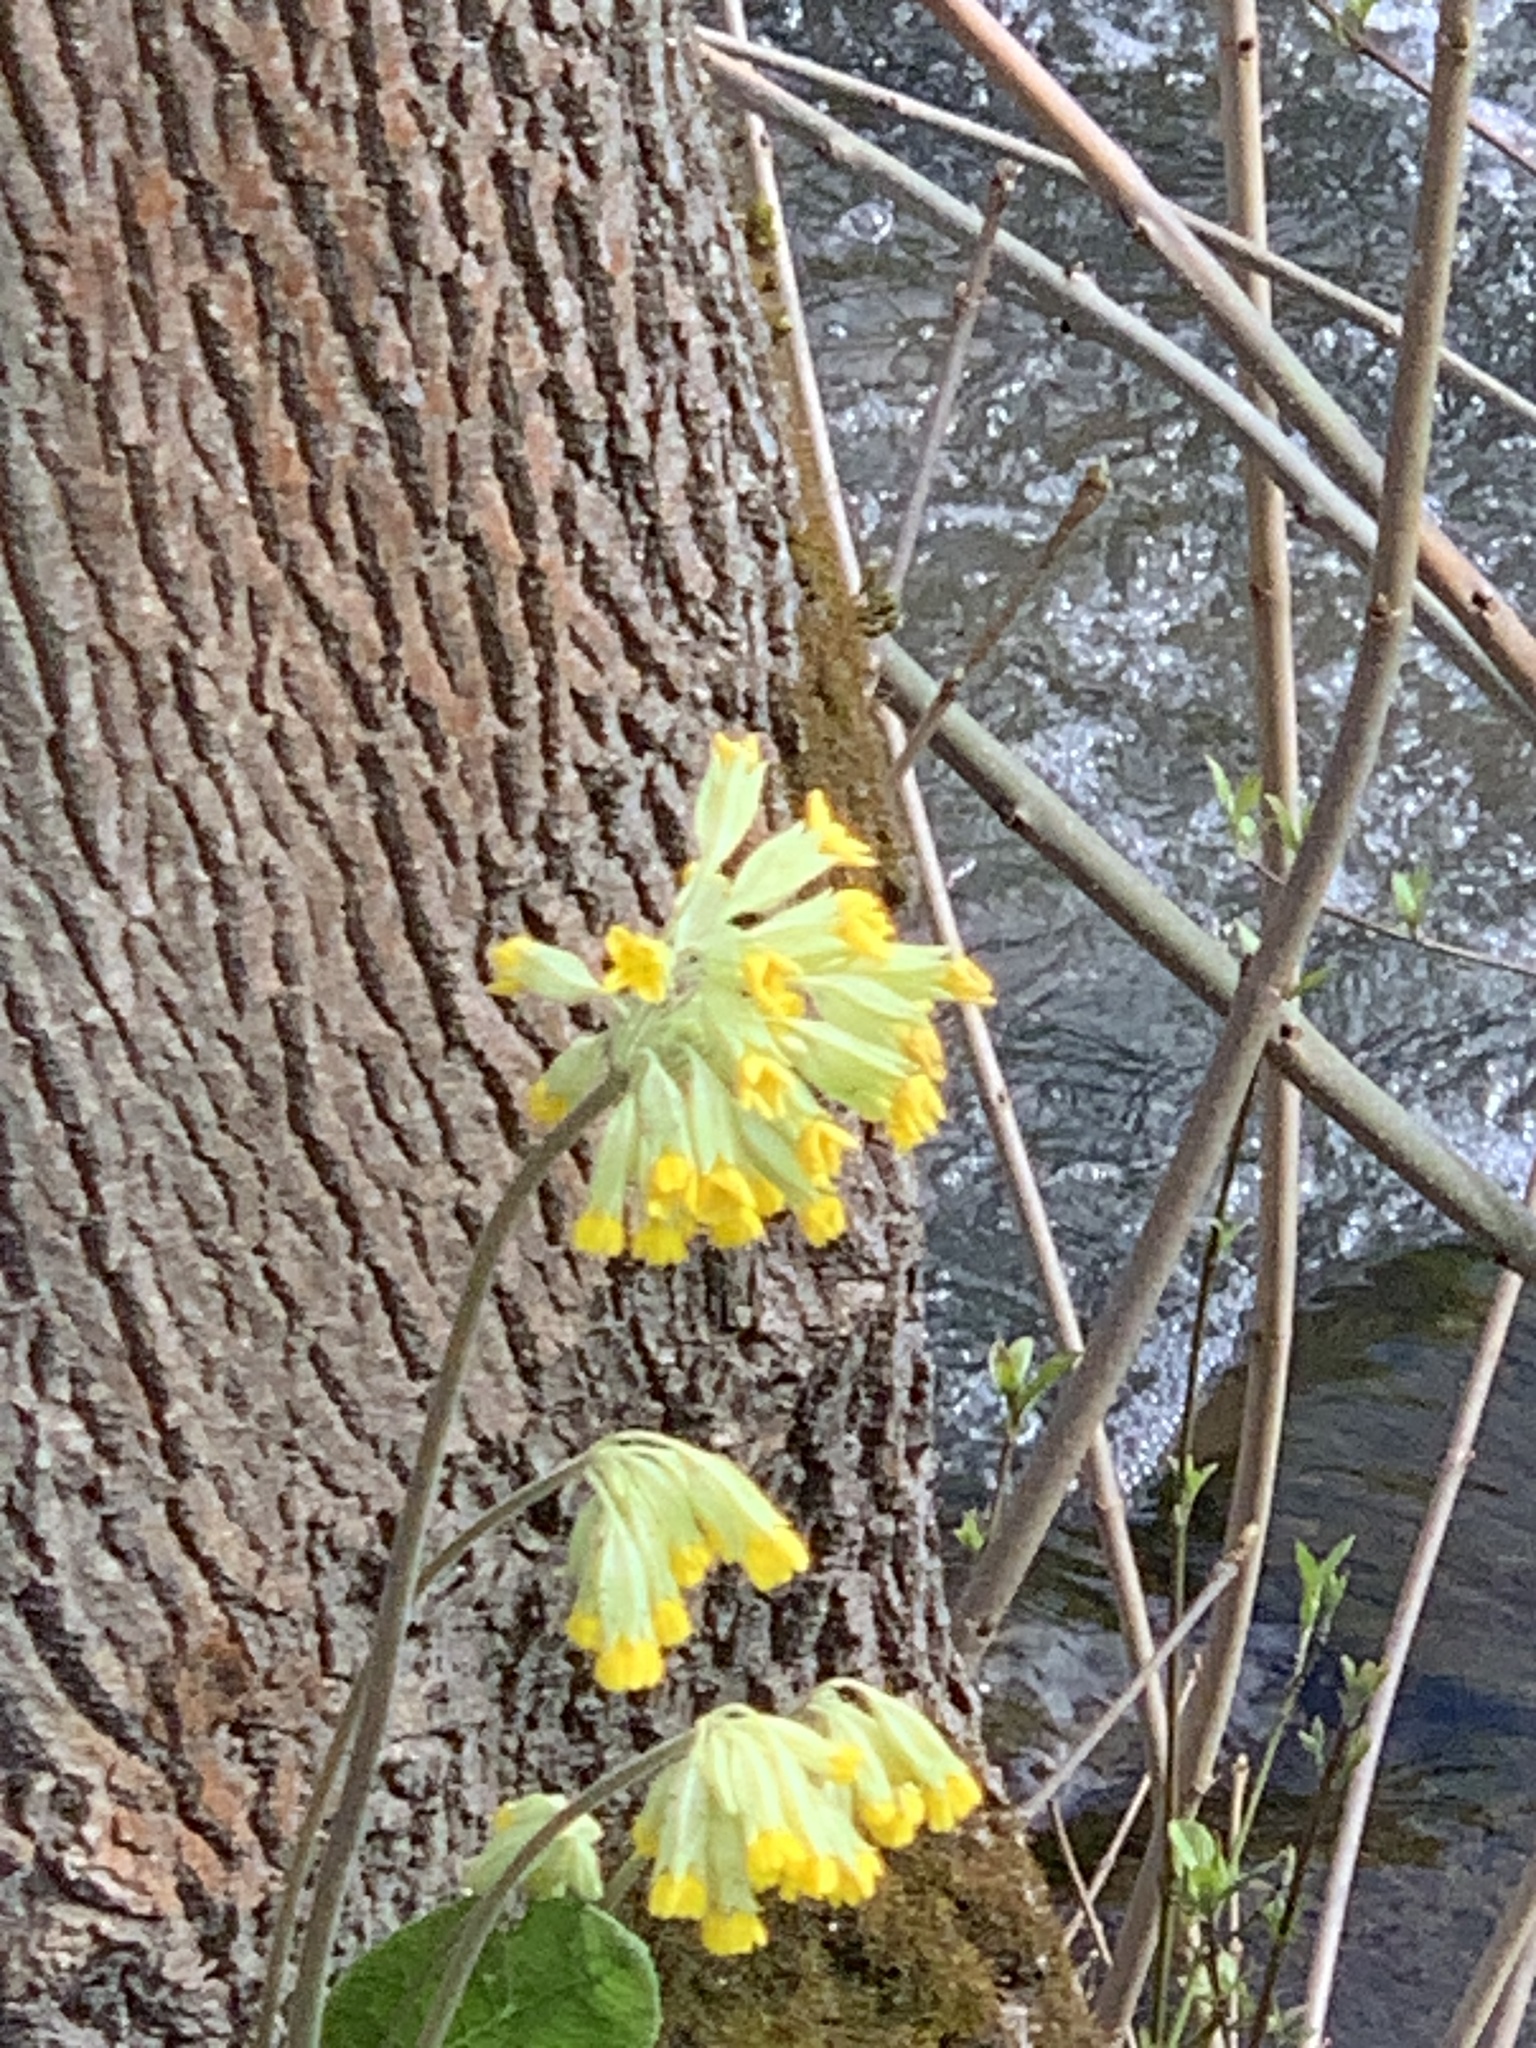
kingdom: Plantae
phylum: Tracheophyta
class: Magnoliopsida
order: Ericales
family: Primulaceae
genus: Primula
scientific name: Primula veris
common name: Cowslip
